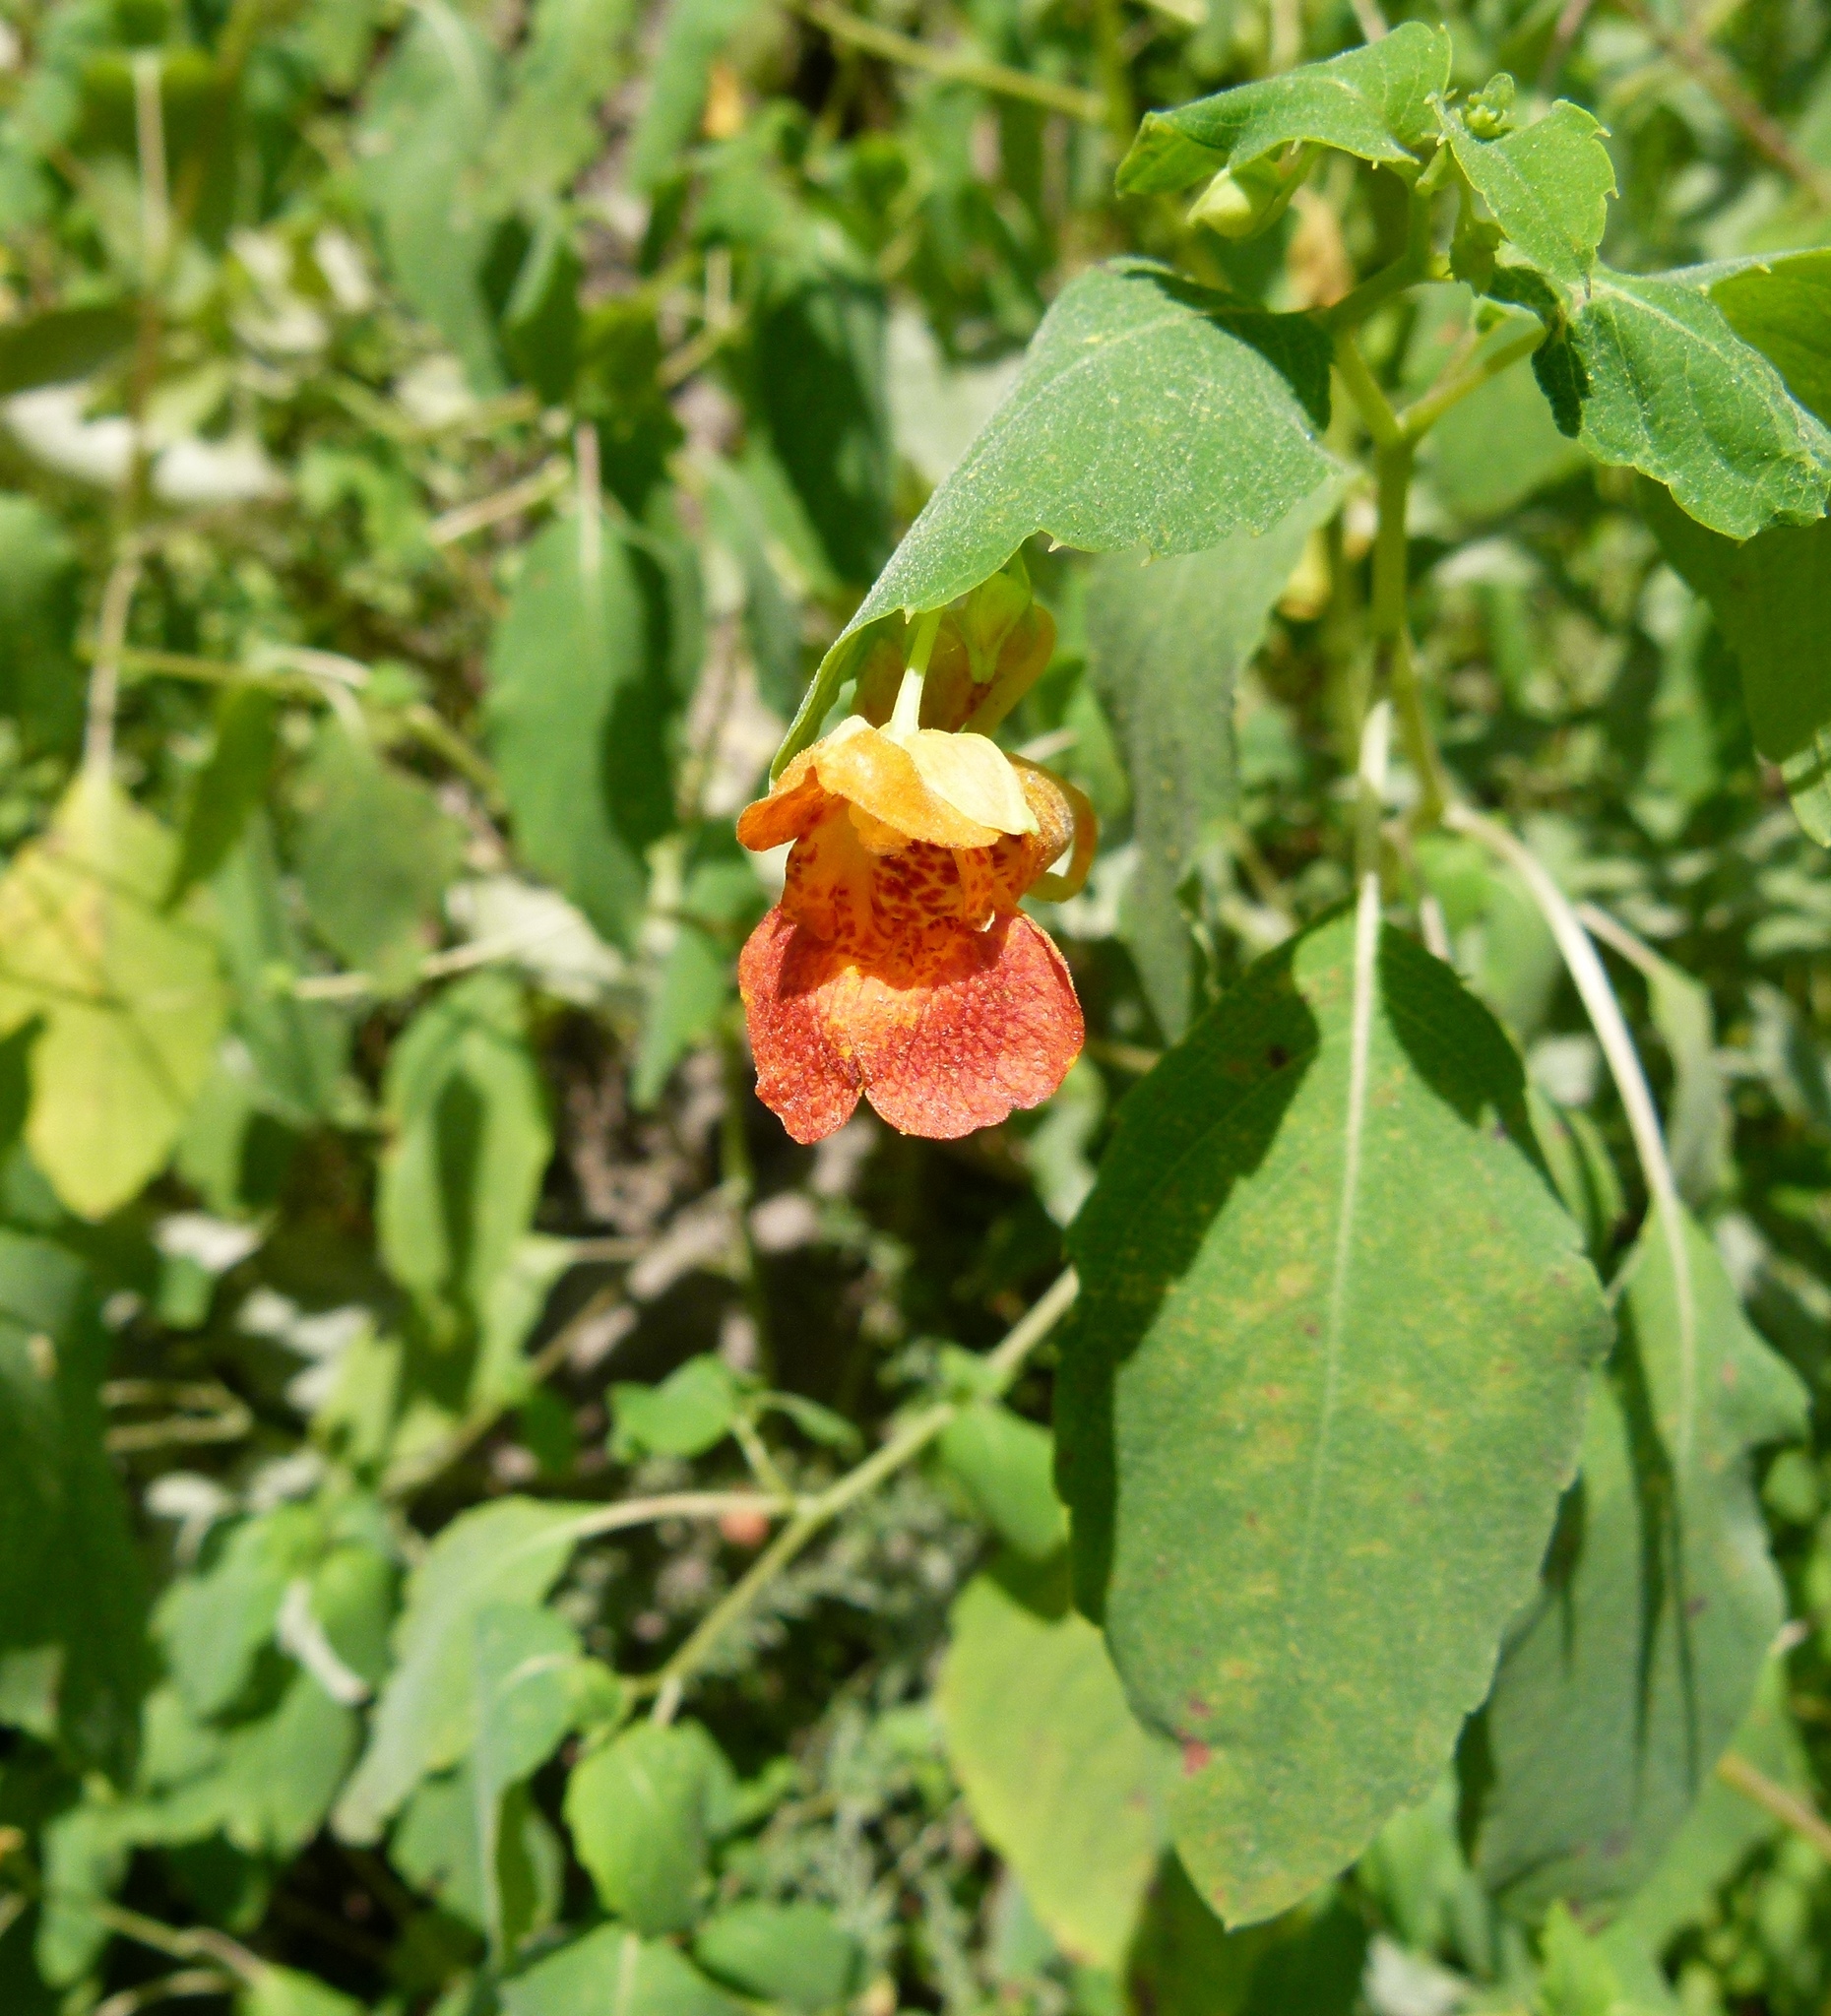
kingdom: Plantae
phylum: Tracheophyta
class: Magnoliopsida
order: Ericales
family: Balsaminaceae
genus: Impatiens
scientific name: Impatiens capensis
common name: Orange balsam
